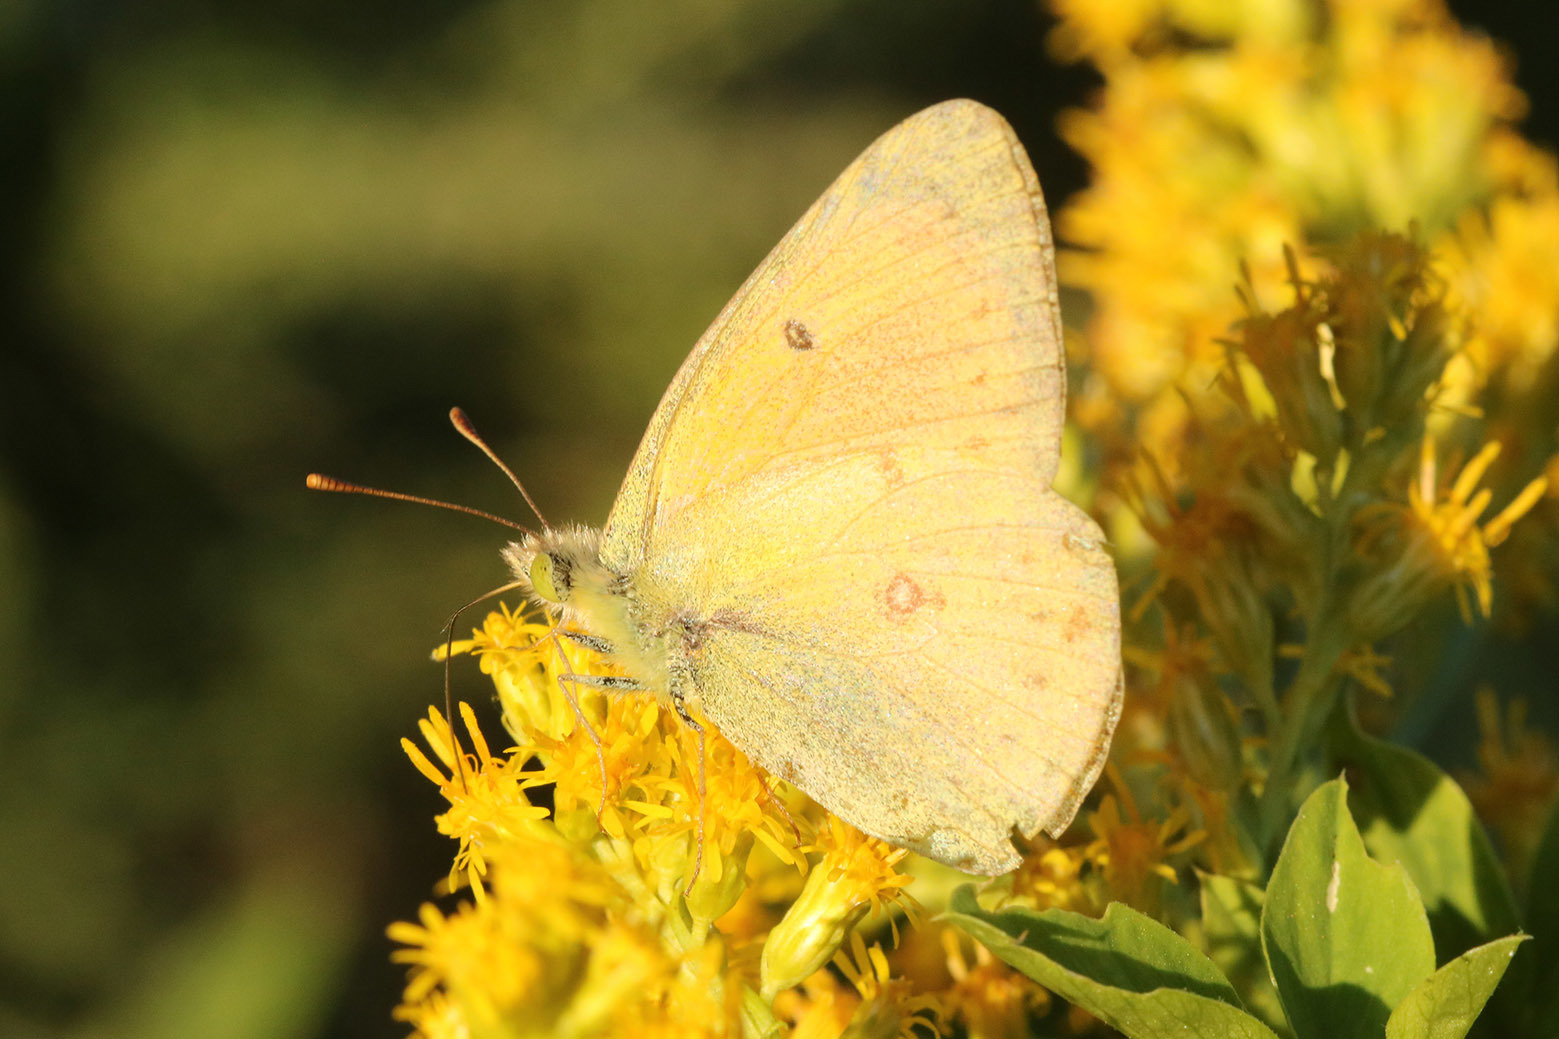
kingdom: Animalia
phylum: Arthropoda
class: Insecta
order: Lepidoptera
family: Pieridae
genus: Colias
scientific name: Colias lesbia
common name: Lesbia clouded yellow
